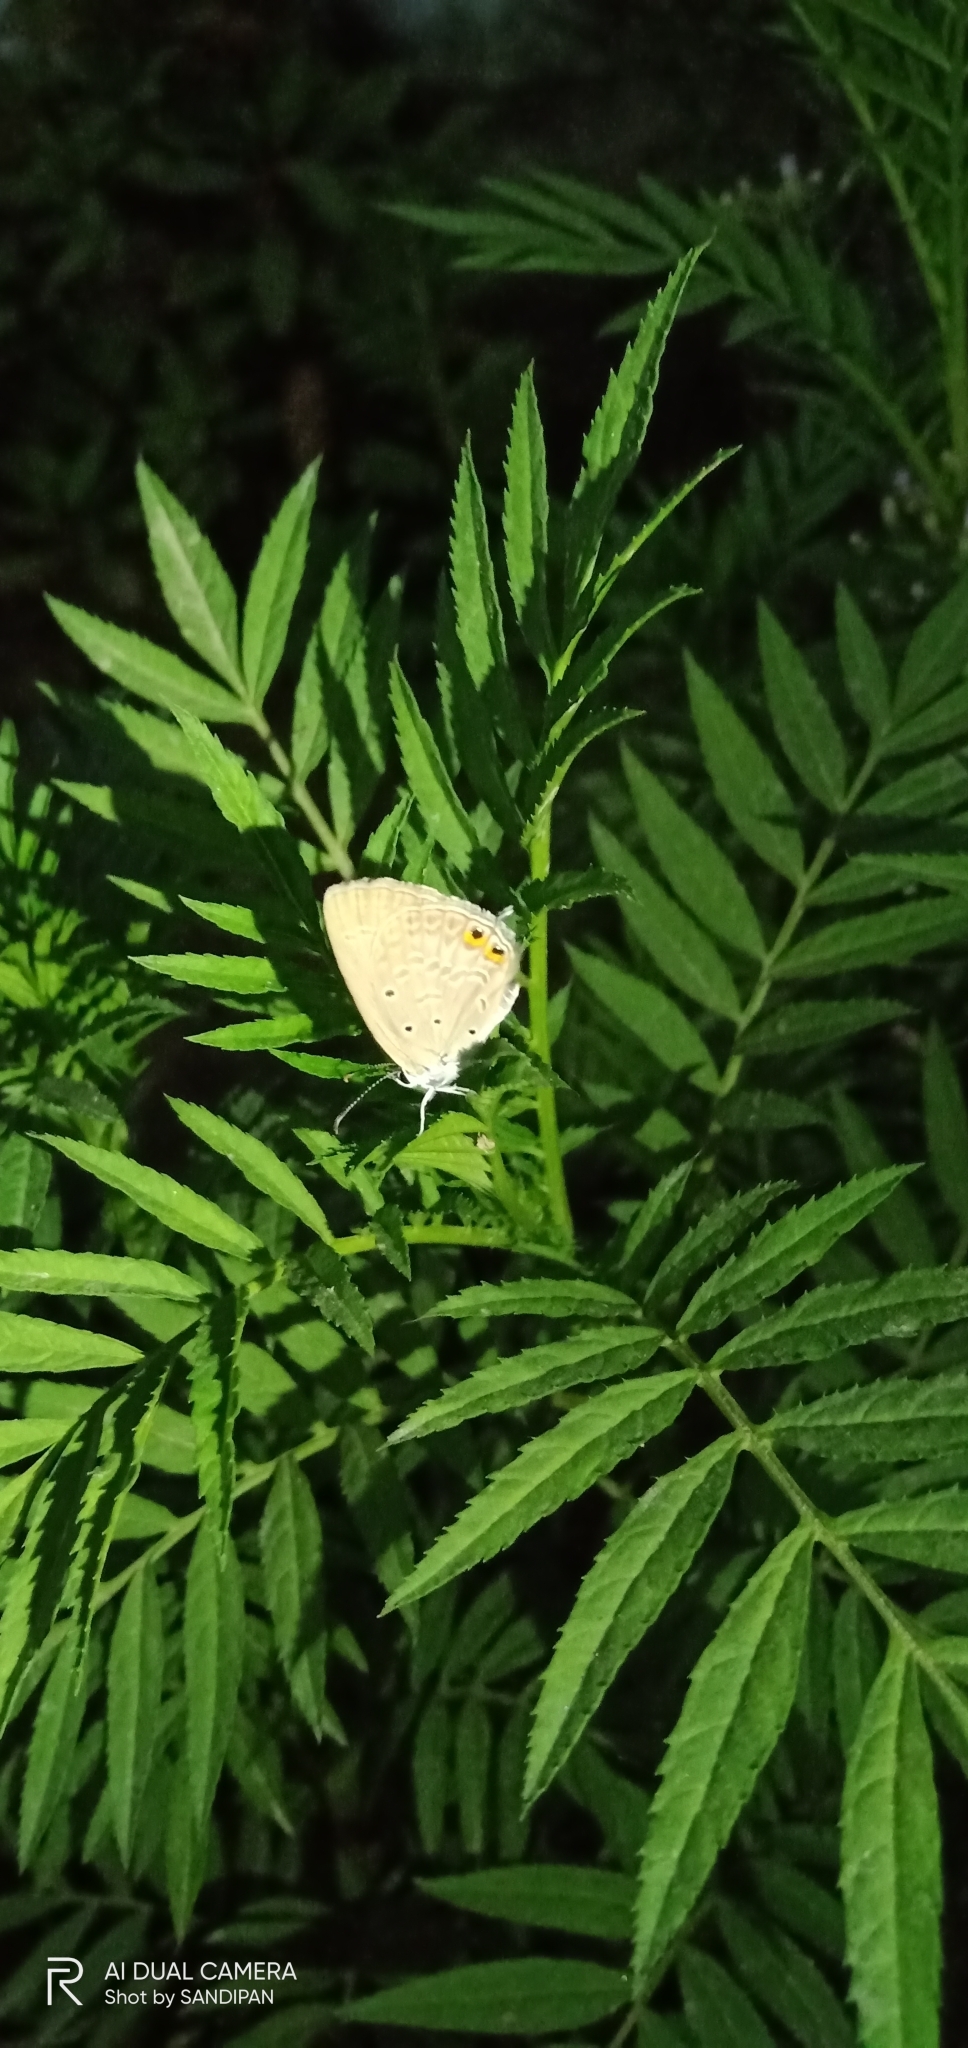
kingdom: Animalia
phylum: Arthropoda
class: Insecta
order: Lepidoptera
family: Lycaenidae
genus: Euchrysops
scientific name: Euchrysops cnejus
